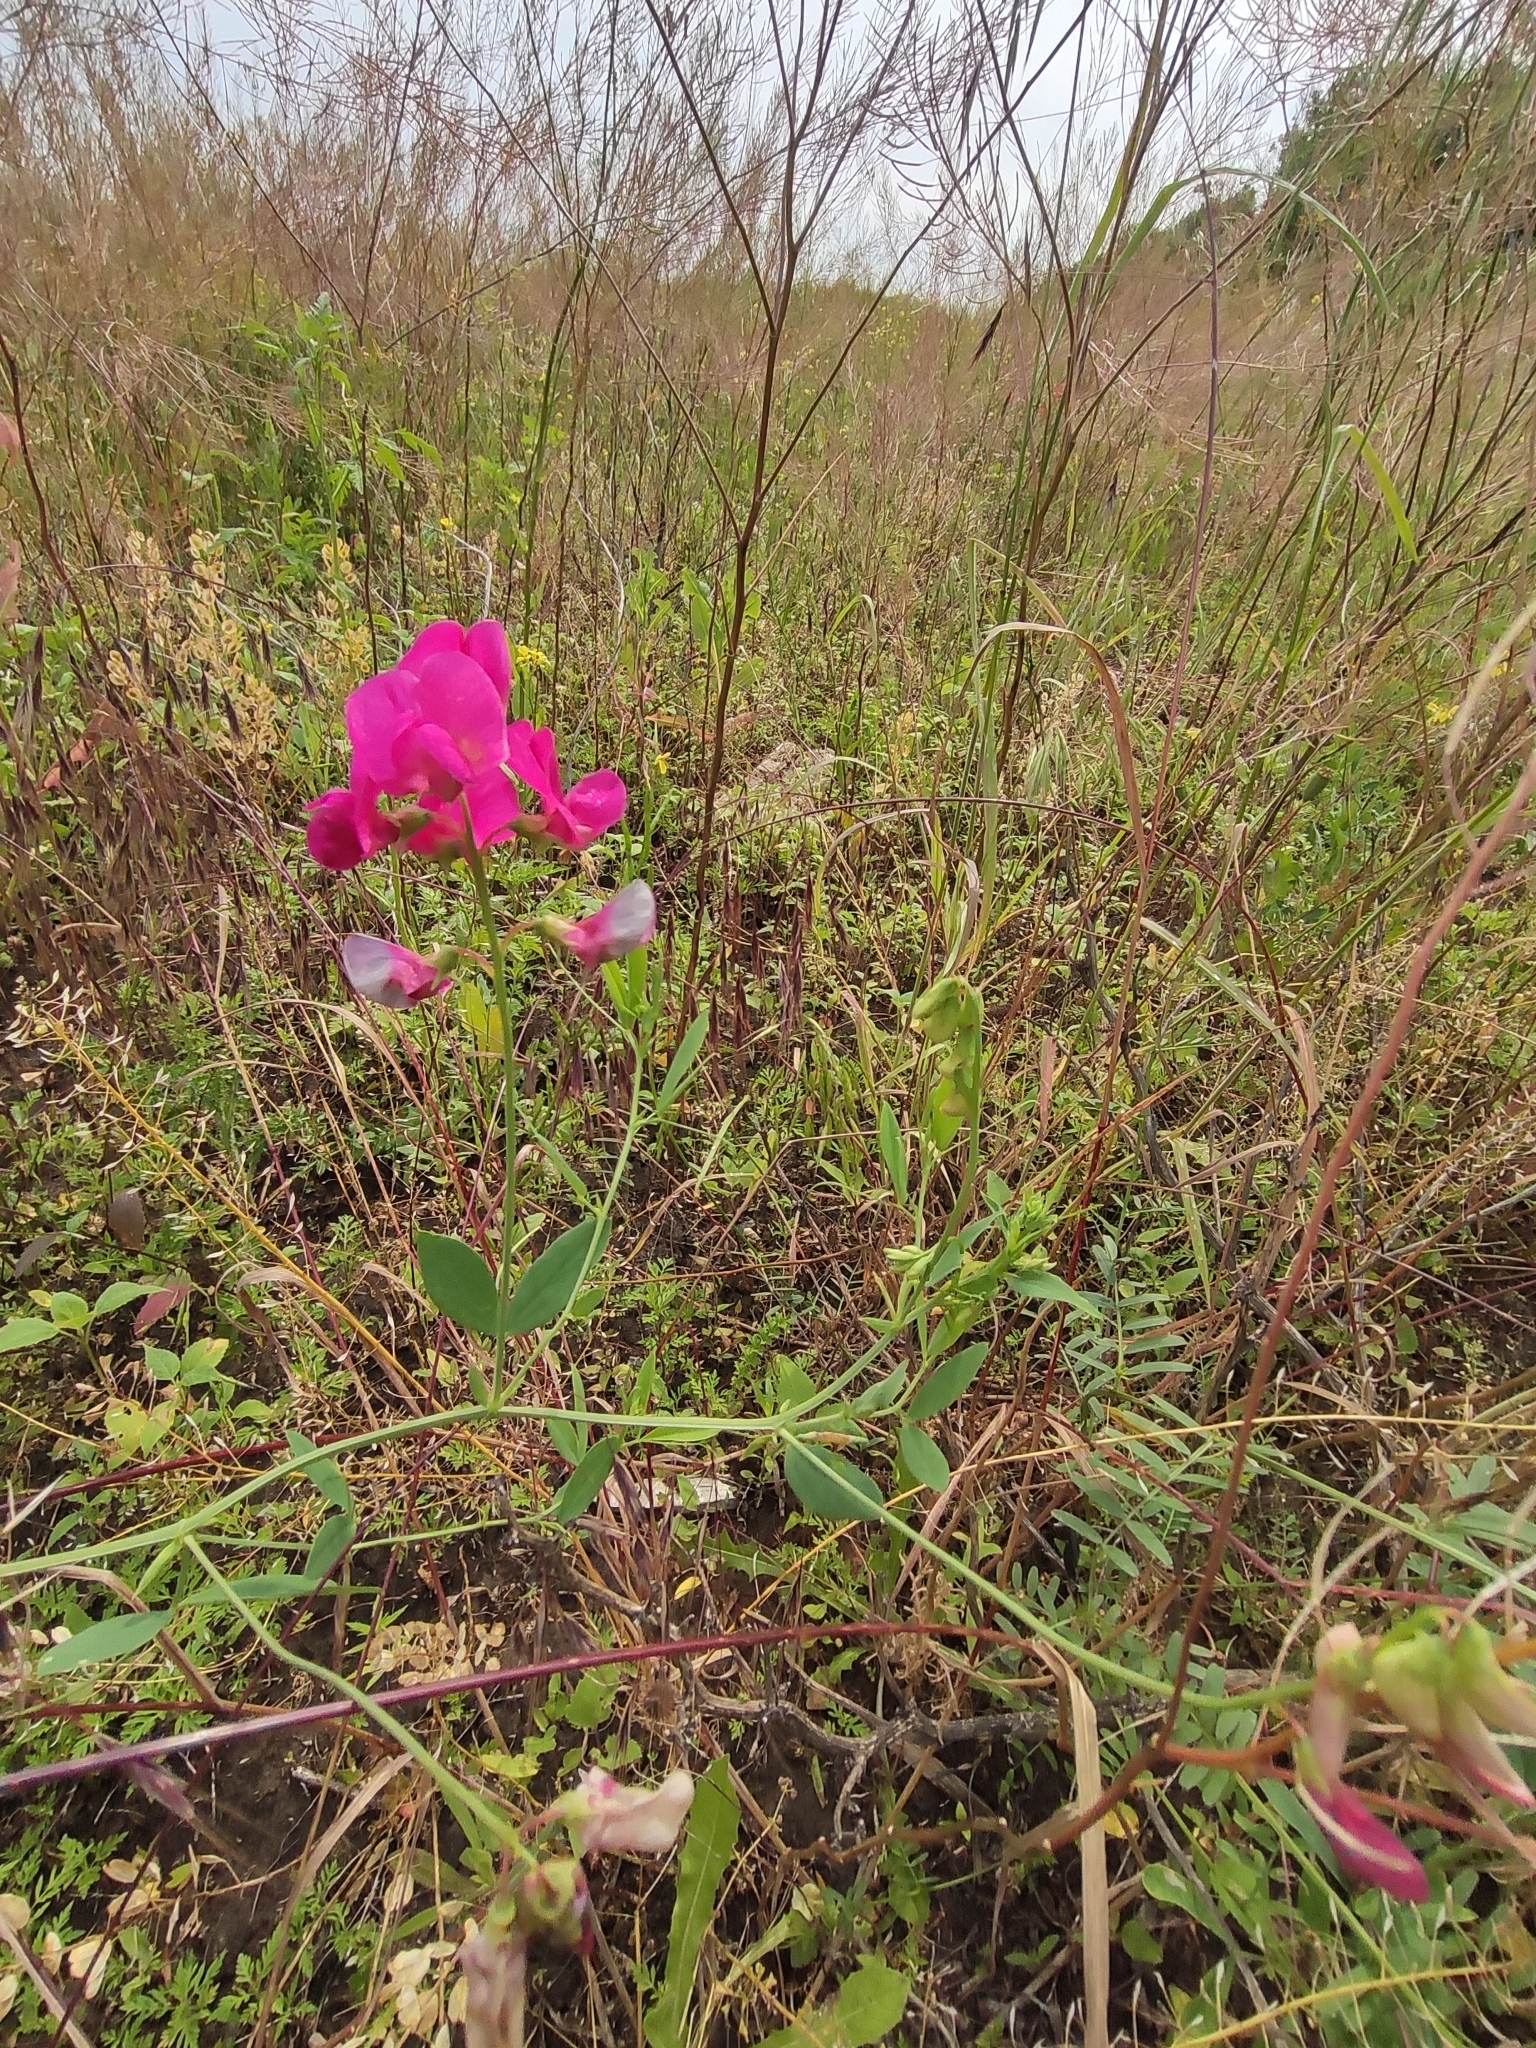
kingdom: Plantae
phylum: Tracheophyta
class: Magnoliopsida
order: Fabales
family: Fabaceae
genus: Lathyrus
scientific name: Lathyrus tuberosus
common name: Tuberous pea
